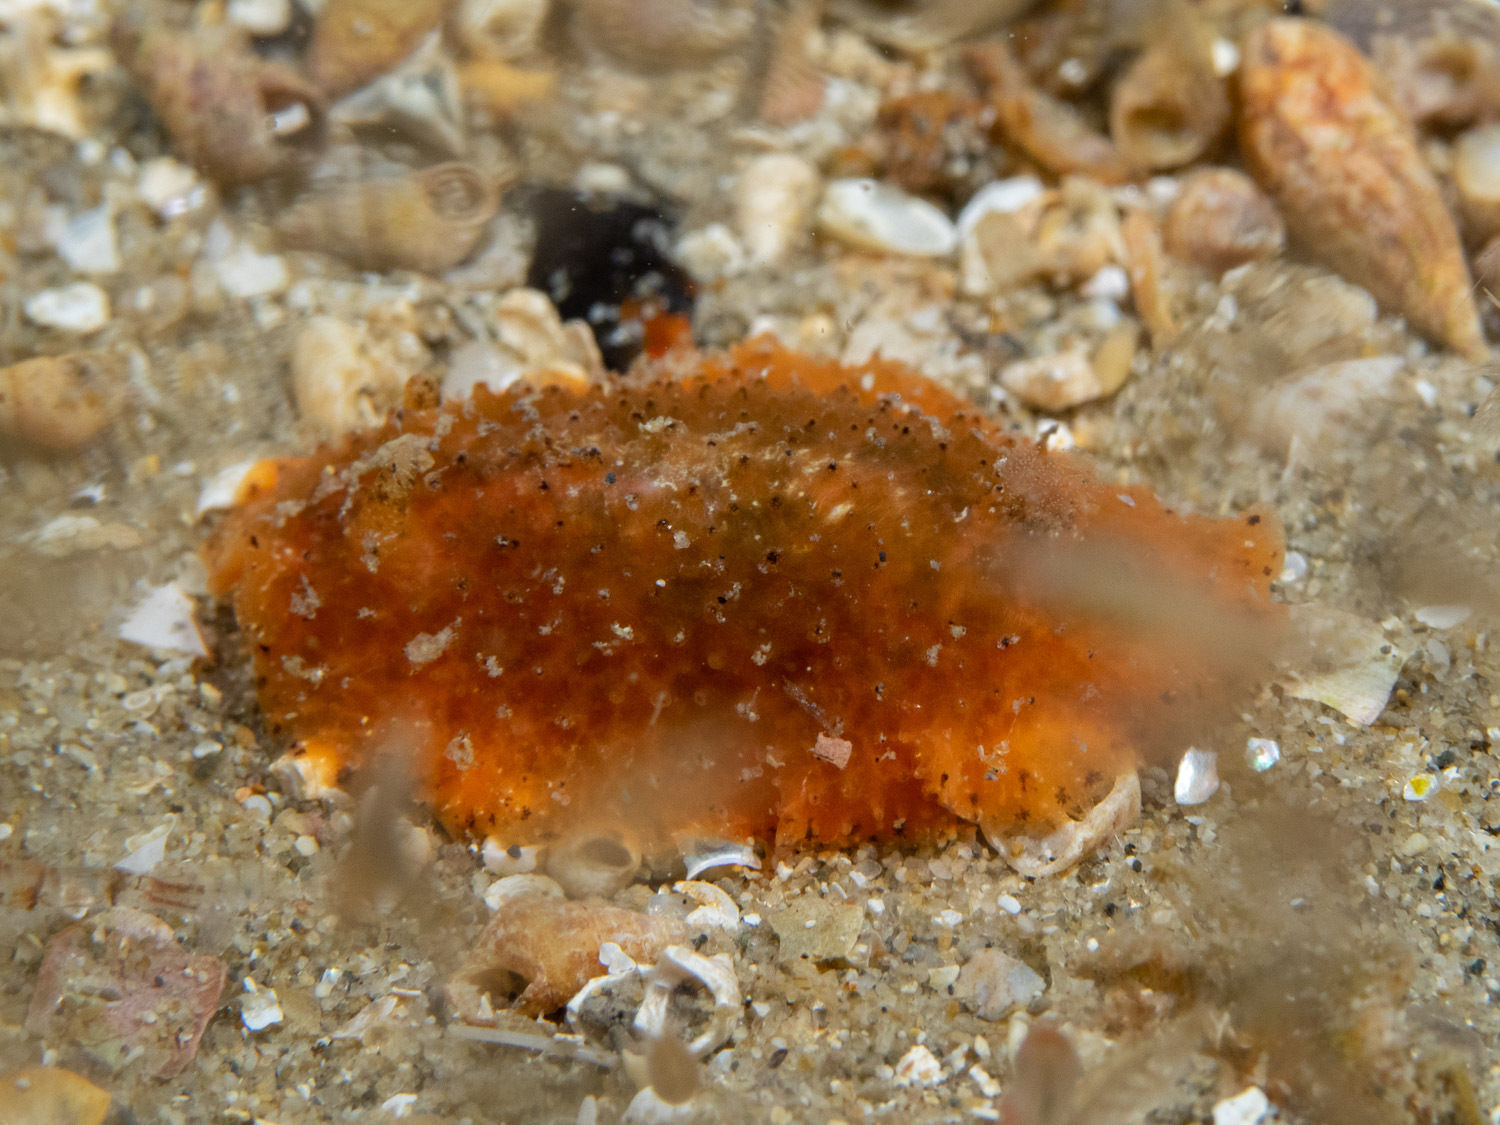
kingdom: Animalia
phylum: Mollusca
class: Gastropoda
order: Nudibranchia
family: Dorididae
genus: Doris
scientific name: Doris cameroni
